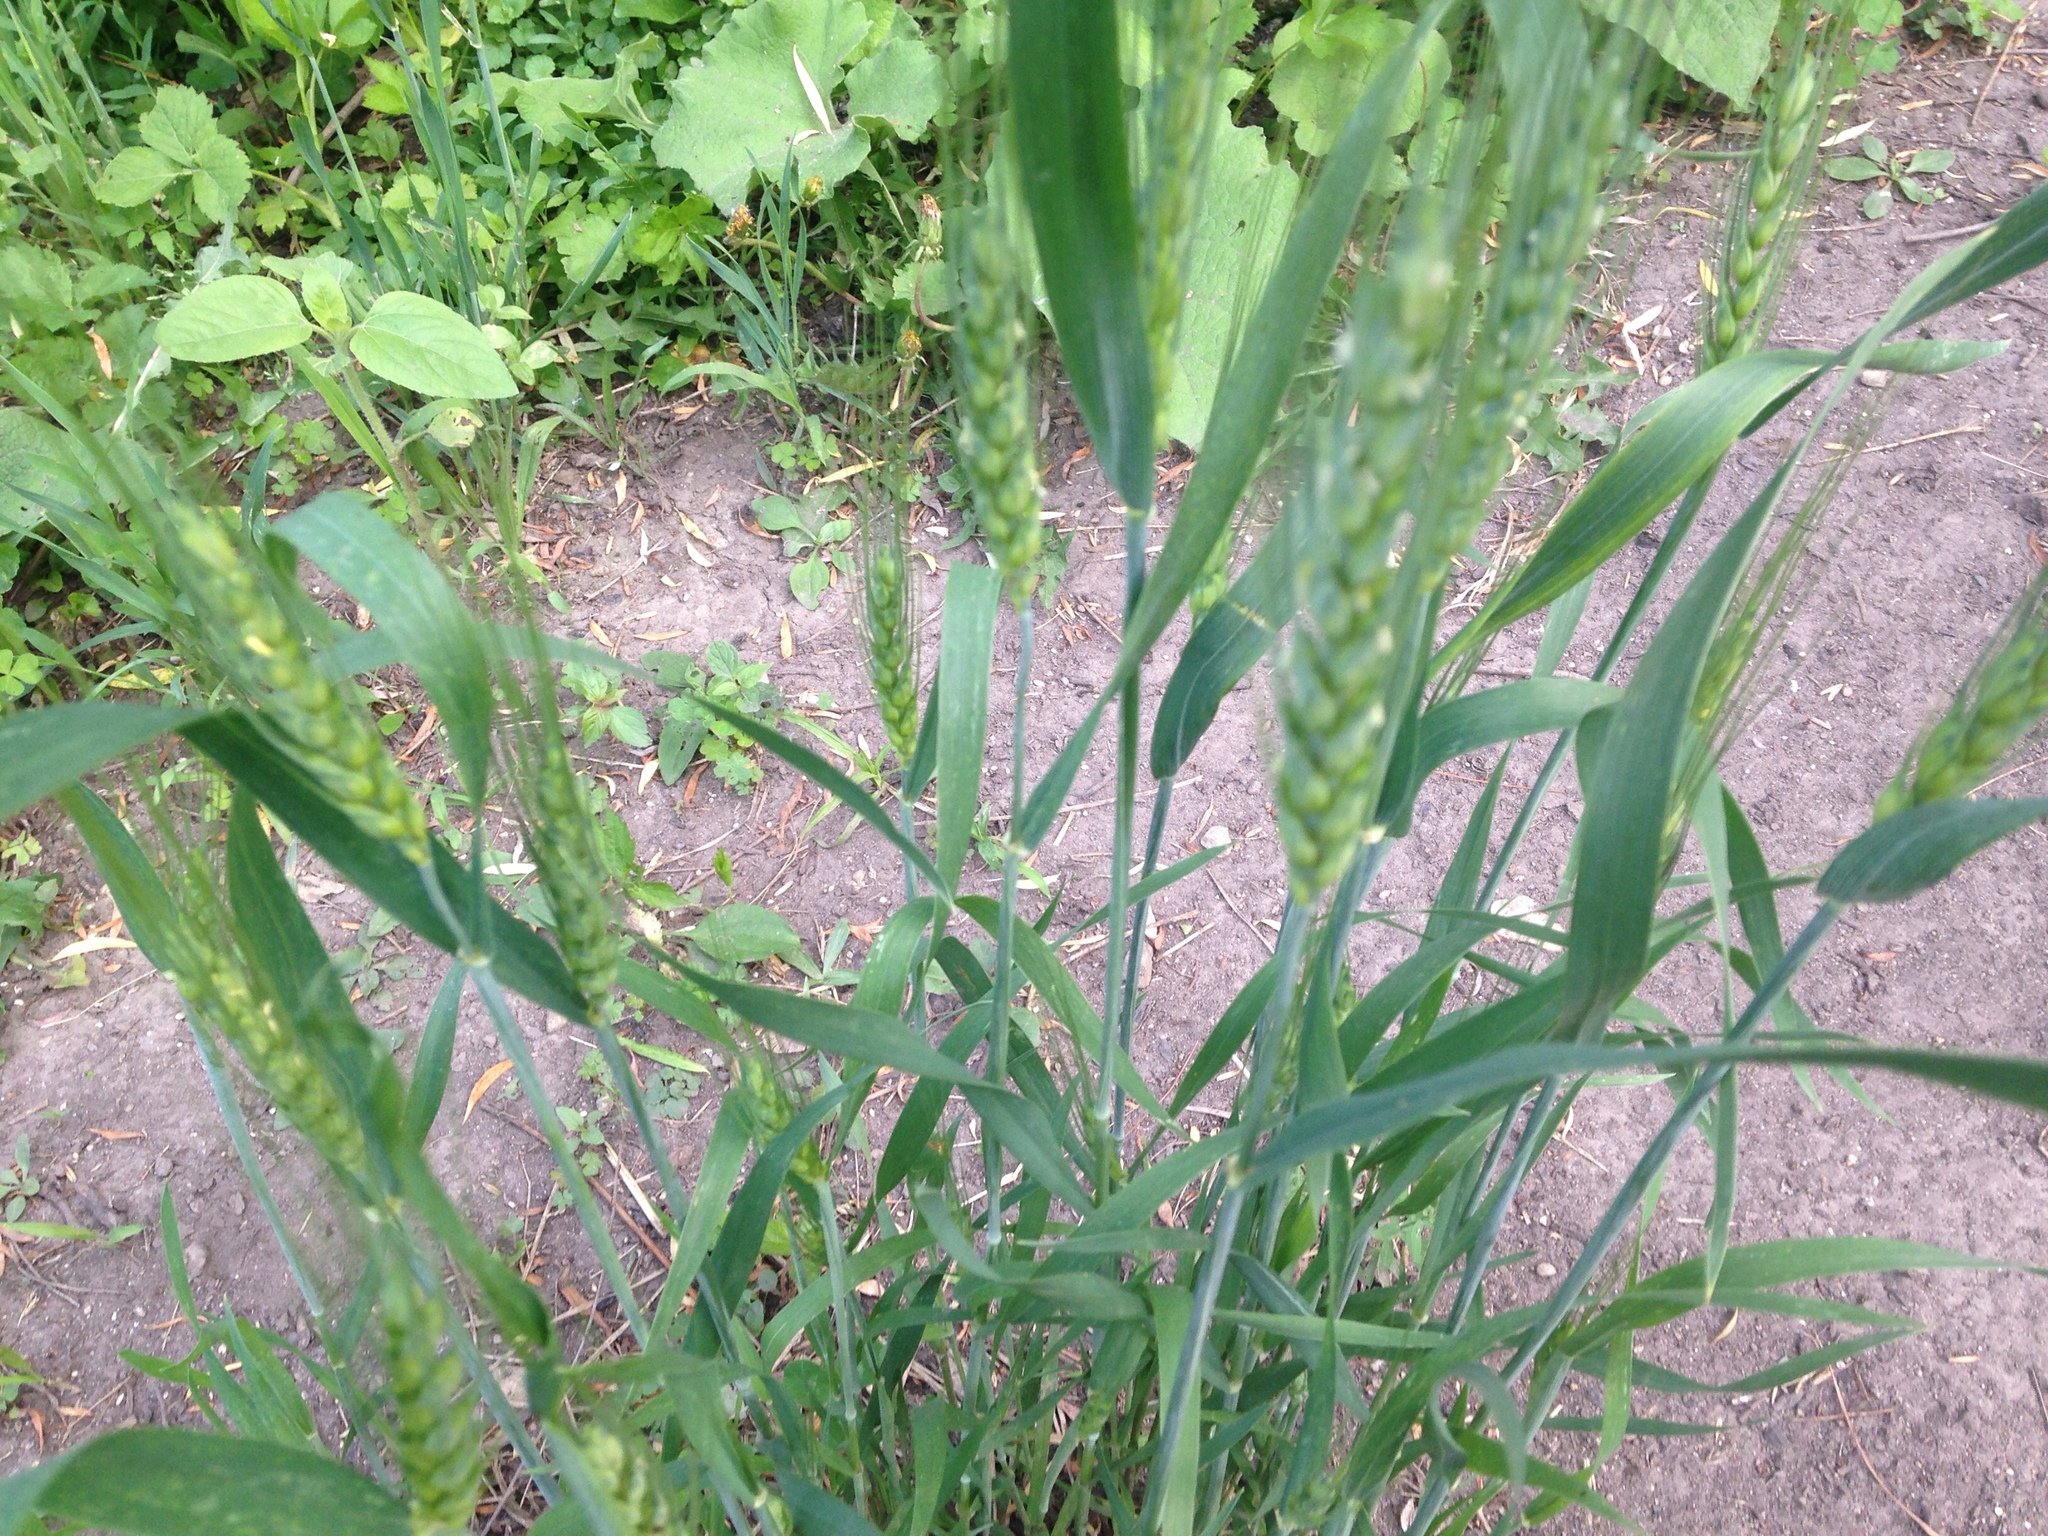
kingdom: Plantae
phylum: Tracheophyta
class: Liliopsida
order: Poales
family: Poaceae
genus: Triticum
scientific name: Triticum aestivum
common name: Common wheat
